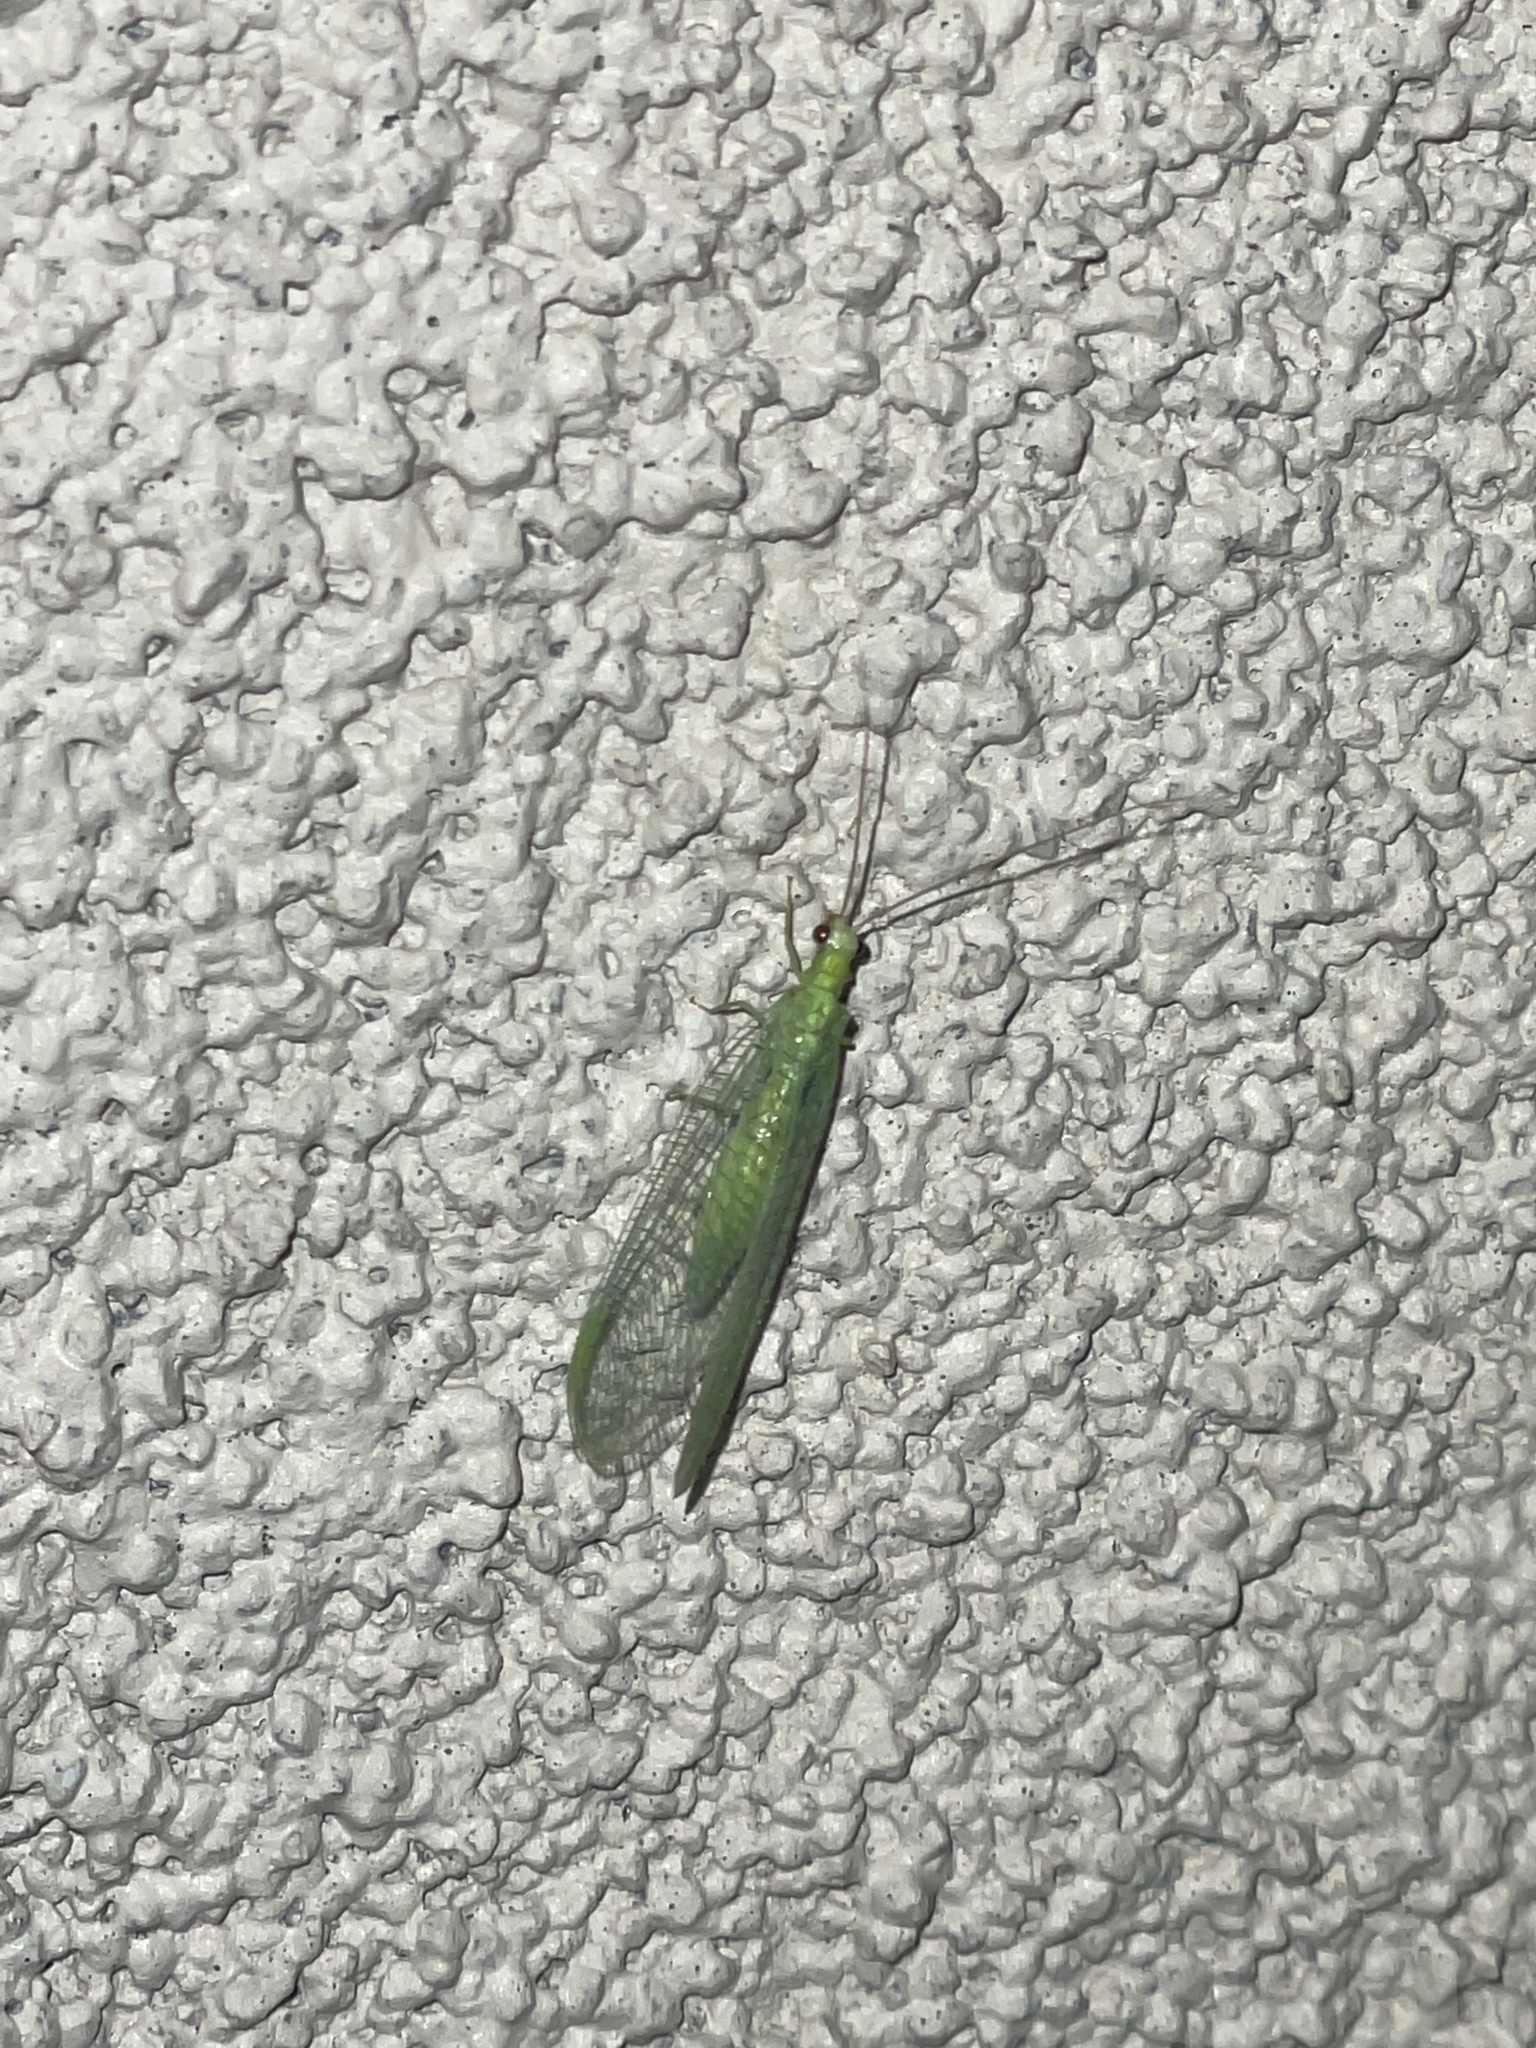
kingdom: Animalia
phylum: Arthropoda
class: Insecta
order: Neuroptera
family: Chrysopidae
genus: Chrysopa
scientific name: Chrysopa nigricornis
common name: Black-horned green lacewing
